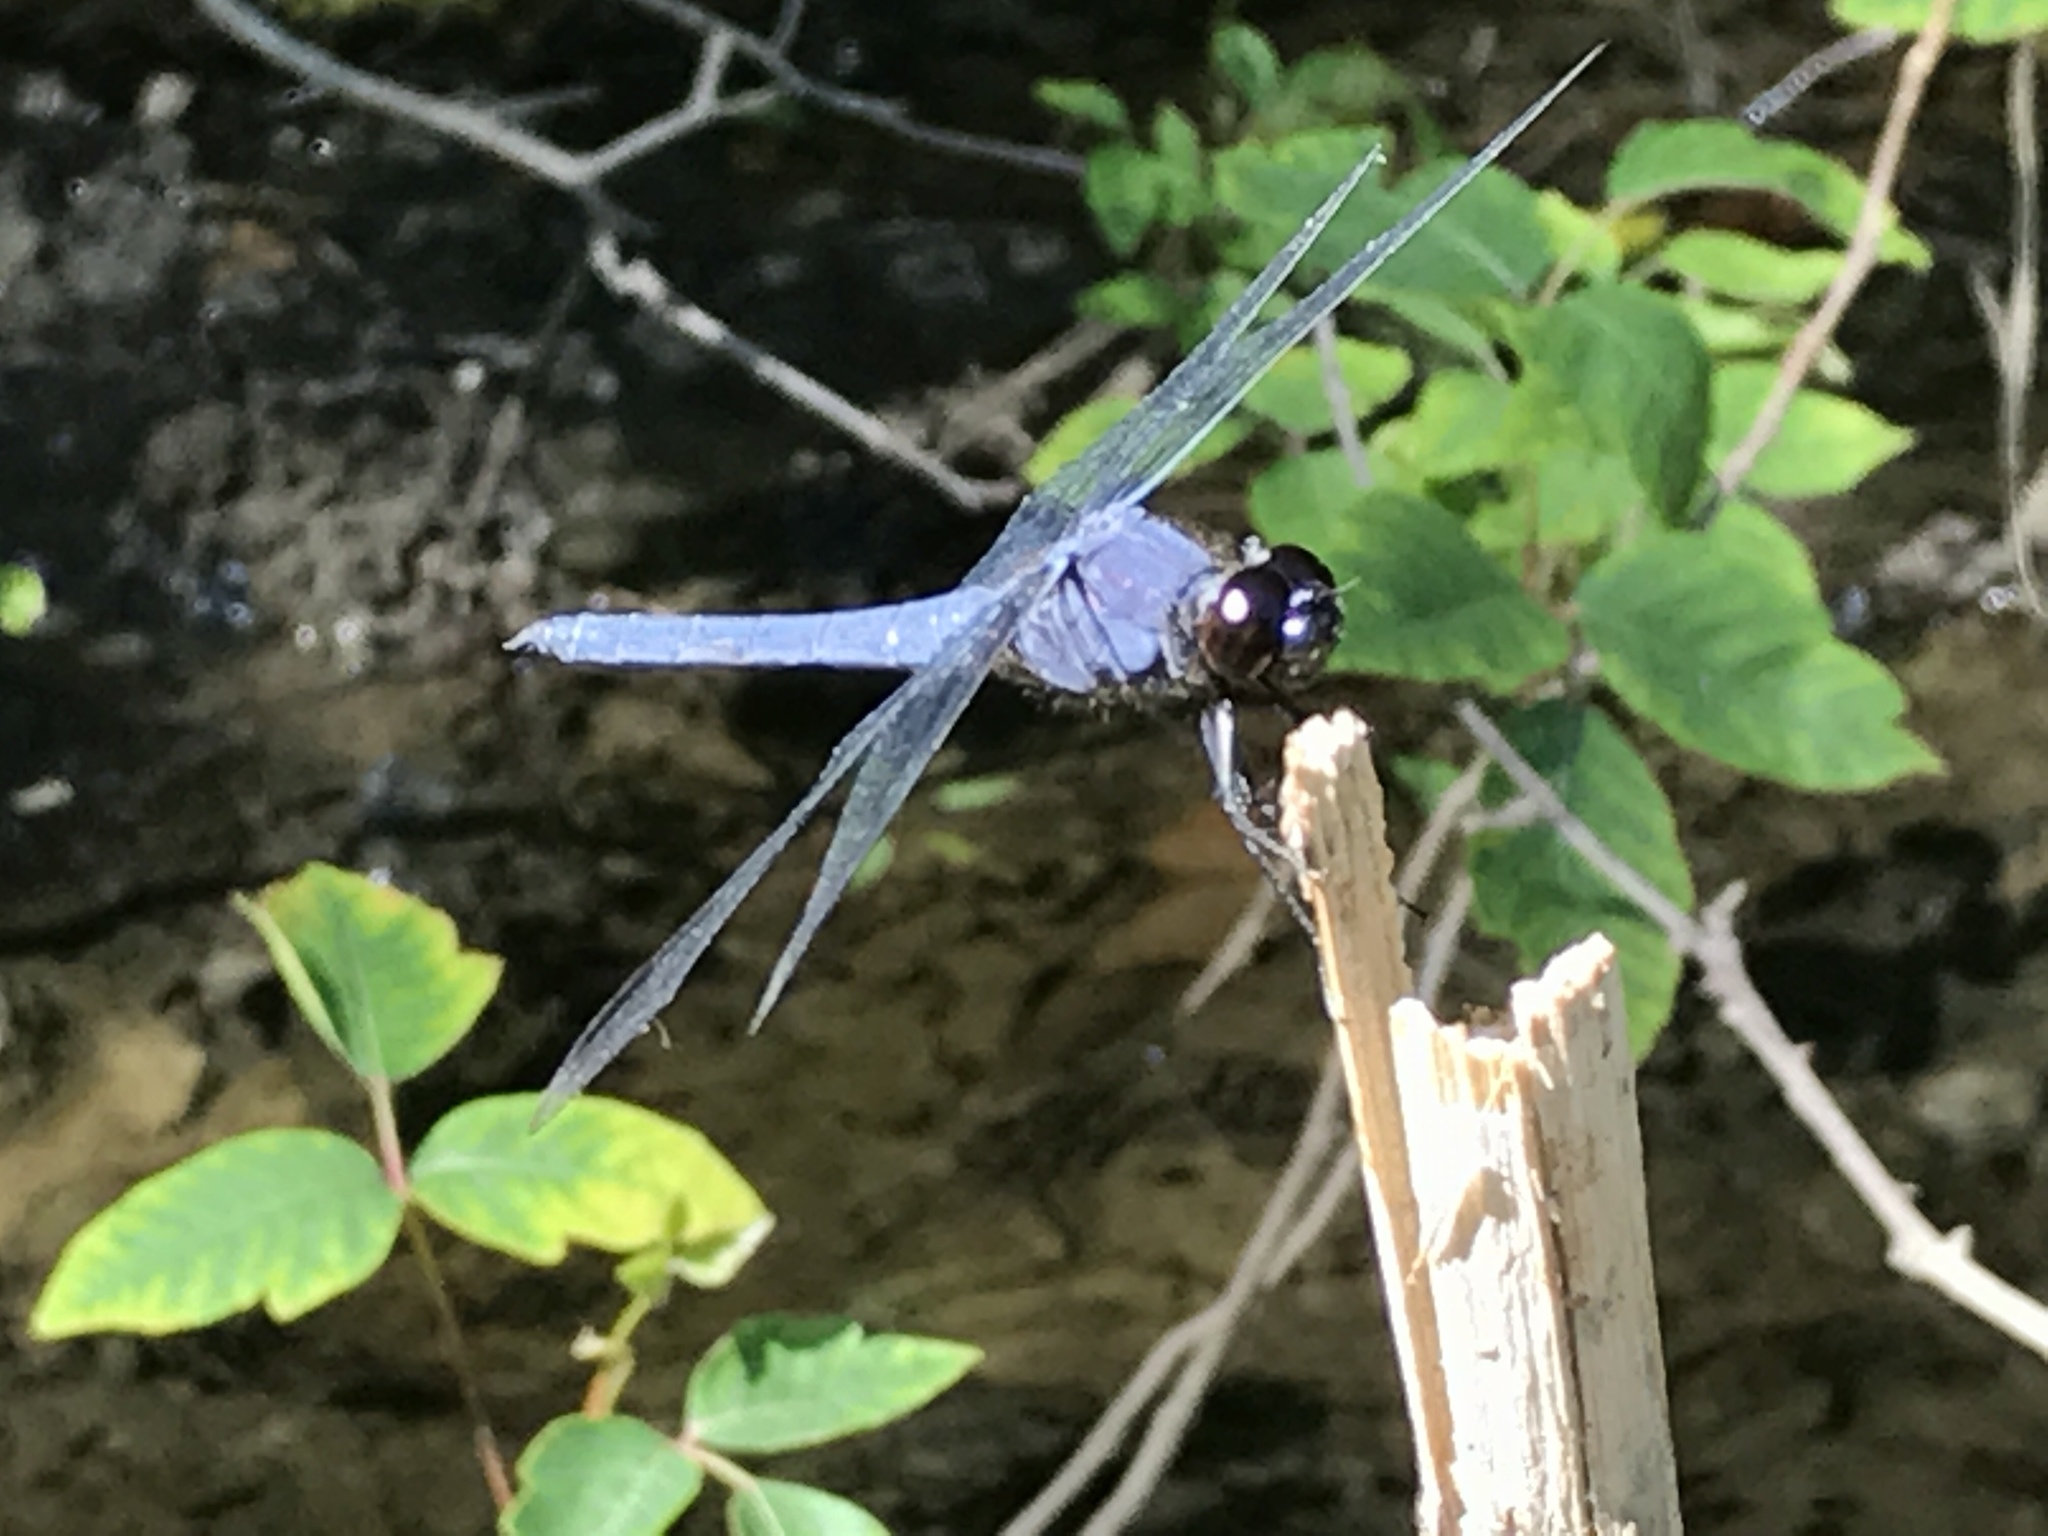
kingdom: Animalia
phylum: Arthropoda
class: Insecta
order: Odonata
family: Libellulidae
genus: Libellula
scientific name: Libellula incesta
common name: Slaty skimmer
